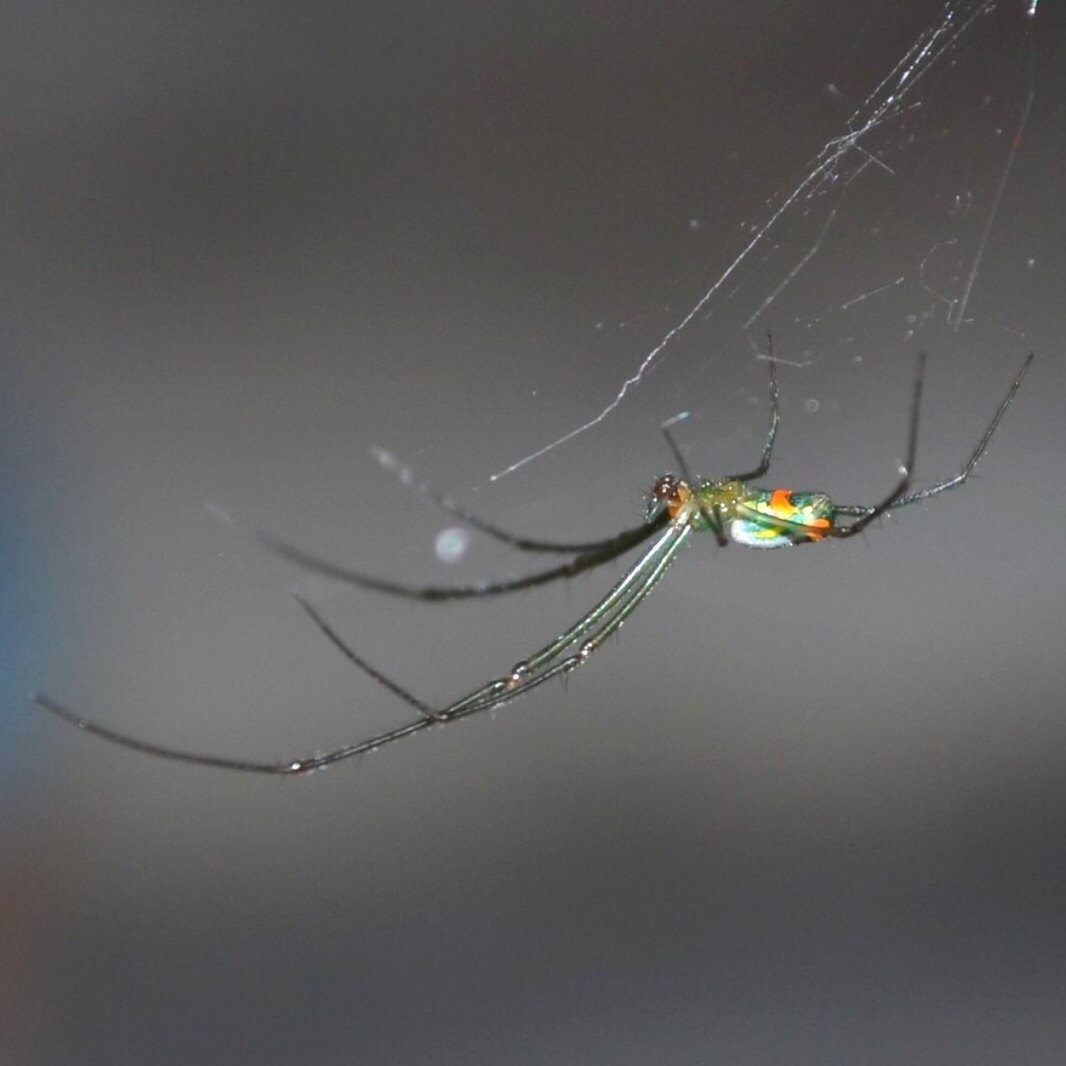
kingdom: Animalia
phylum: Arthropoda
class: Arachnida
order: Araneae
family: Tetragnathidae
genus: Leucauge
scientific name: Leucauge argyrobapta
